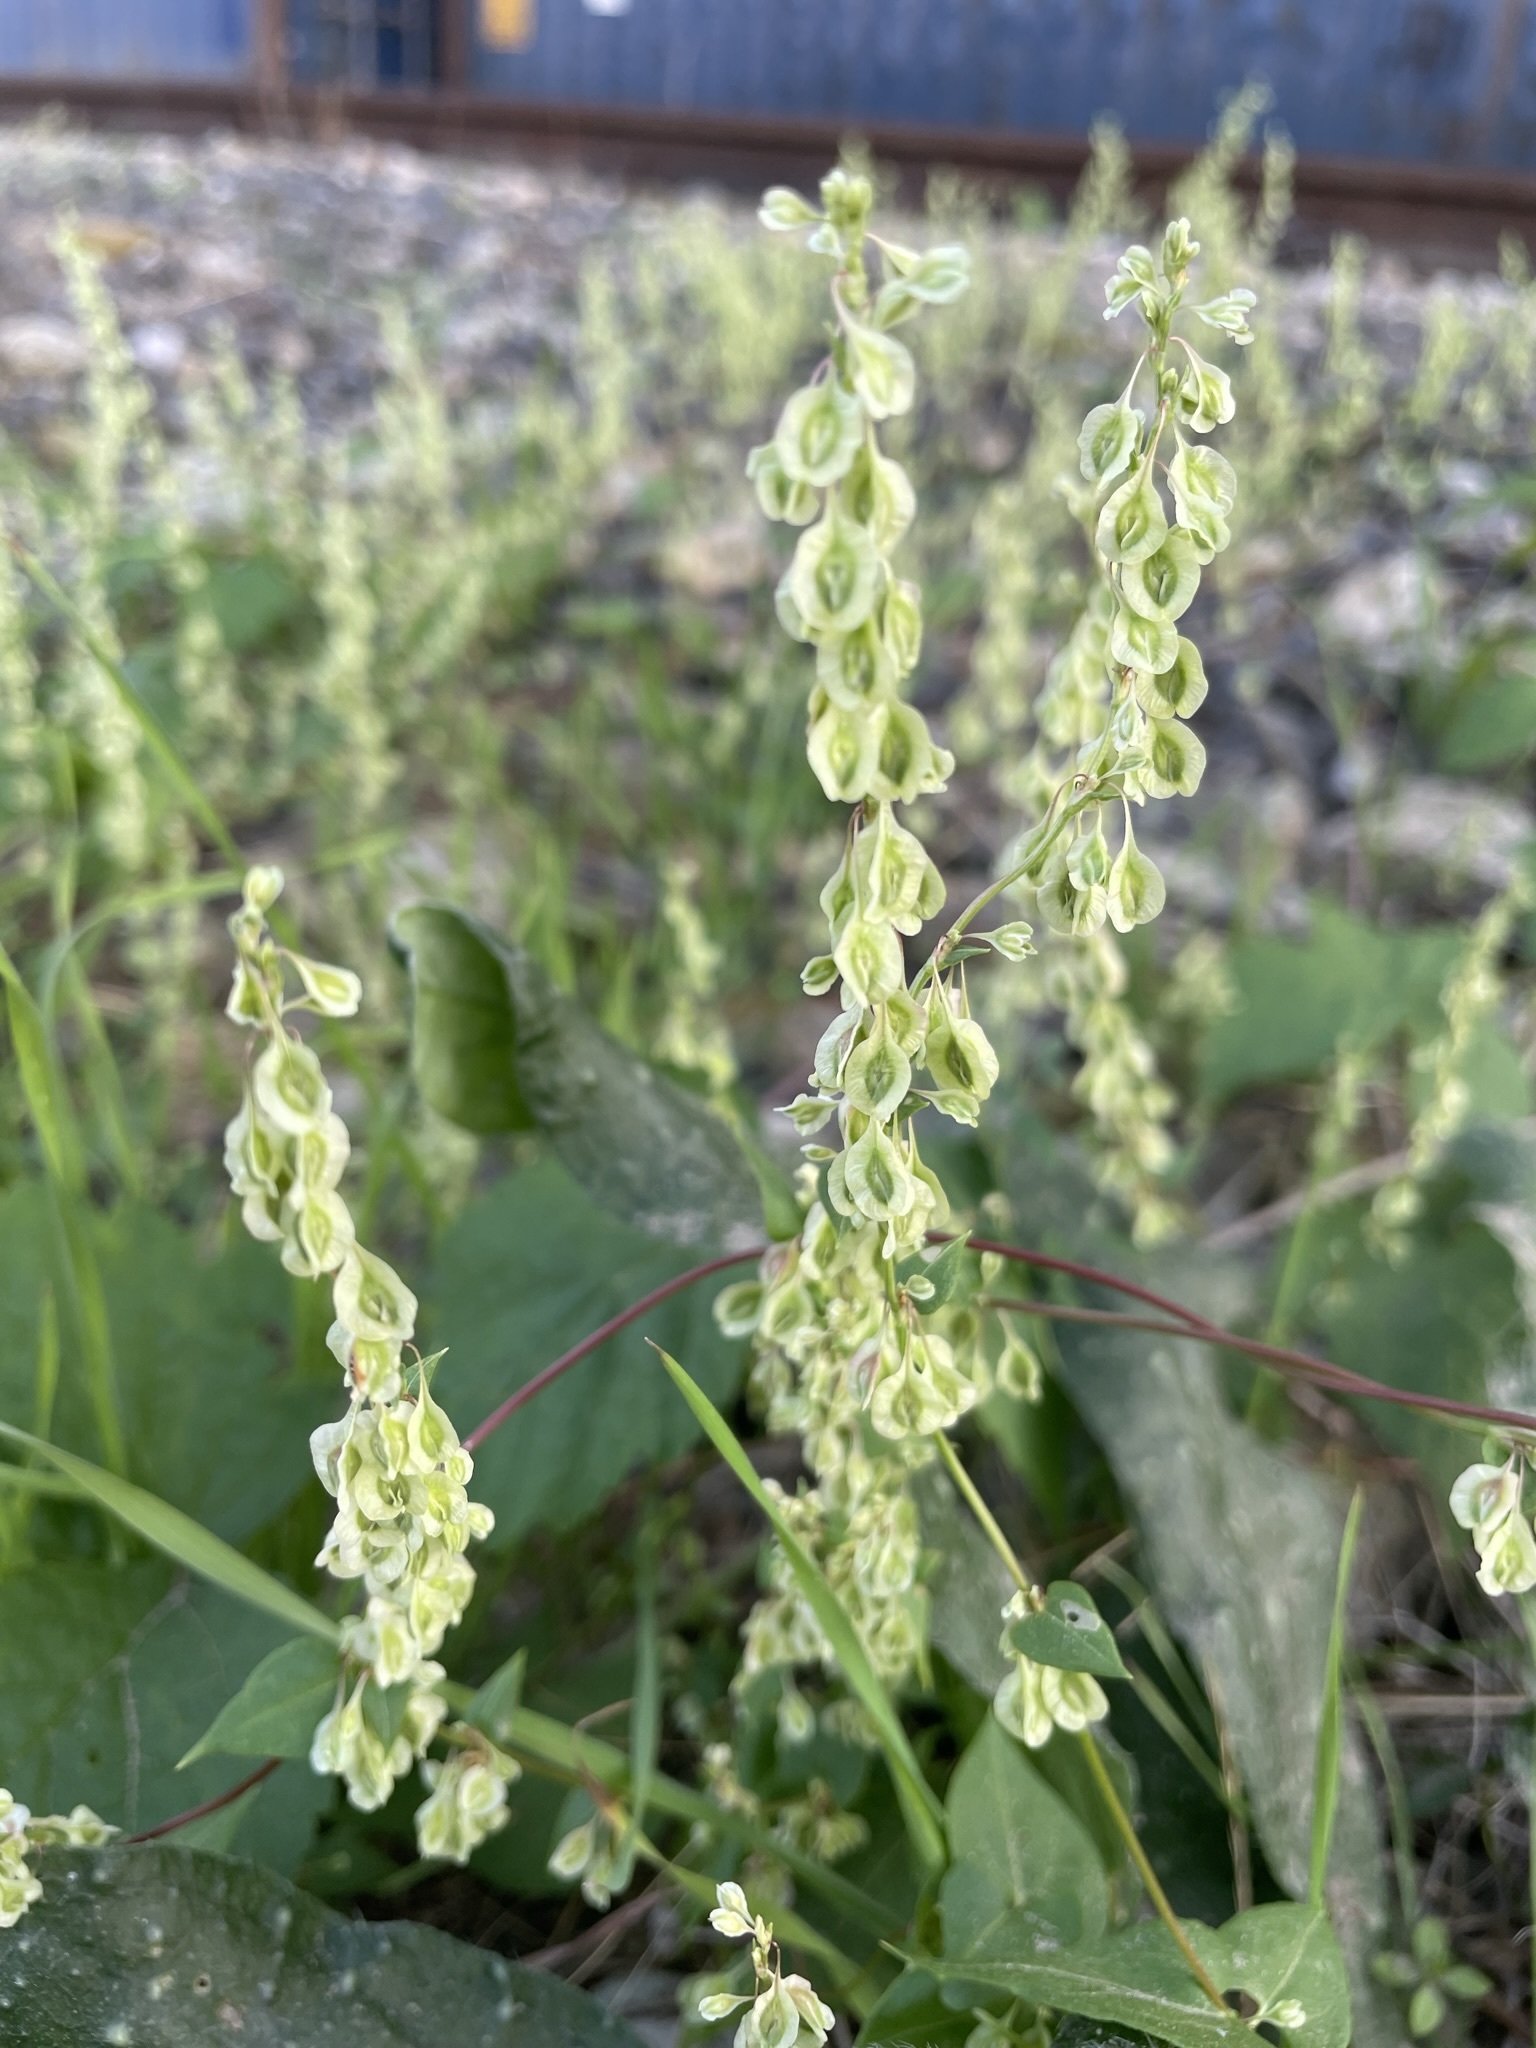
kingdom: Plantae
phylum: Tracheophyta
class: Magnoliopsida
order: Caryophyllales
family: Polygonaceae
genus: Fallopia
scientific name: Fallopia dumetorum
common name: Copse-bindweed
